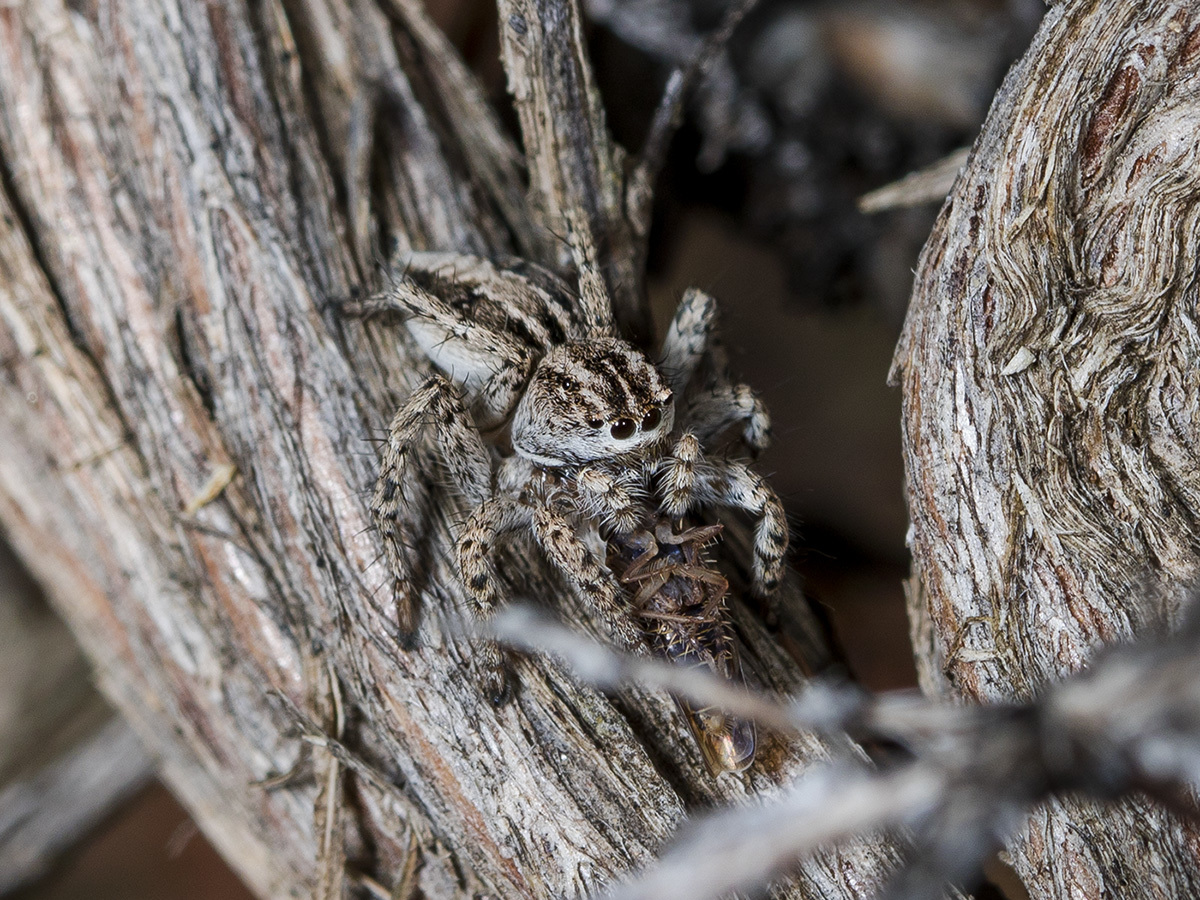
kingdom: Animalia
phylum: Arthropoda
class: Arachnida
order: Araneae
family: Salticidae
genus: Aelurillus
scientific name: Aelurillus m-nigrum
